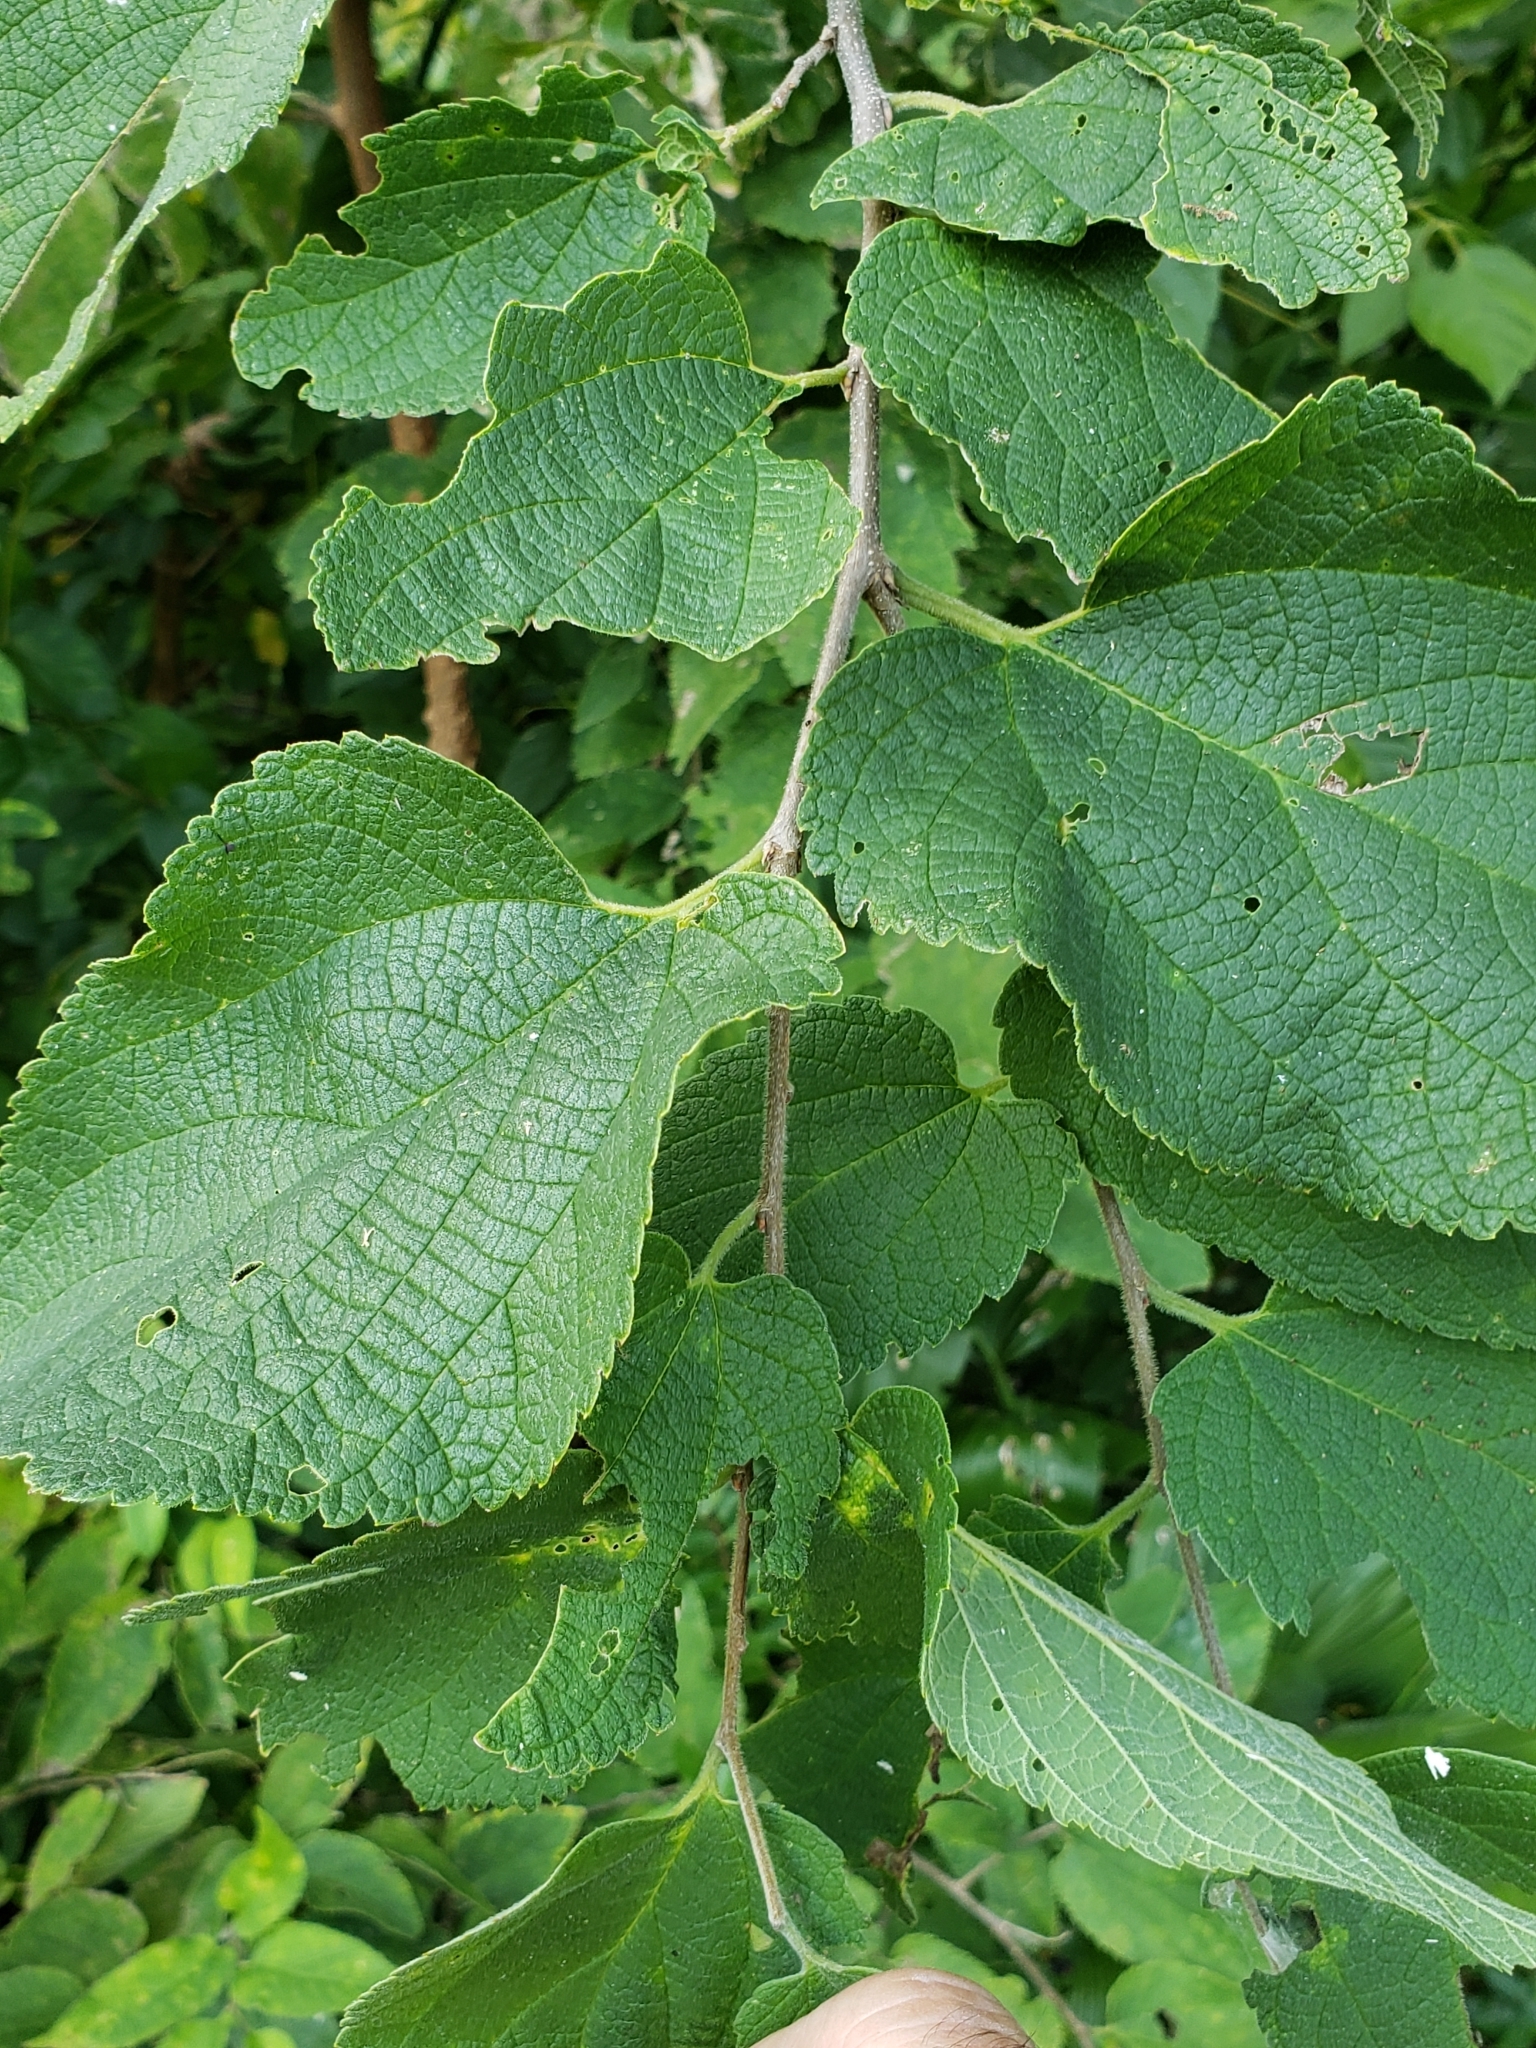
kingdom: Plantae
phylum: Tracheophyta
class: Magnoliopsida
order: Rosales
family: Cannabaceae
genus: Celtis
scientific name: Celtis occidentalis
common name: Common hackberry
